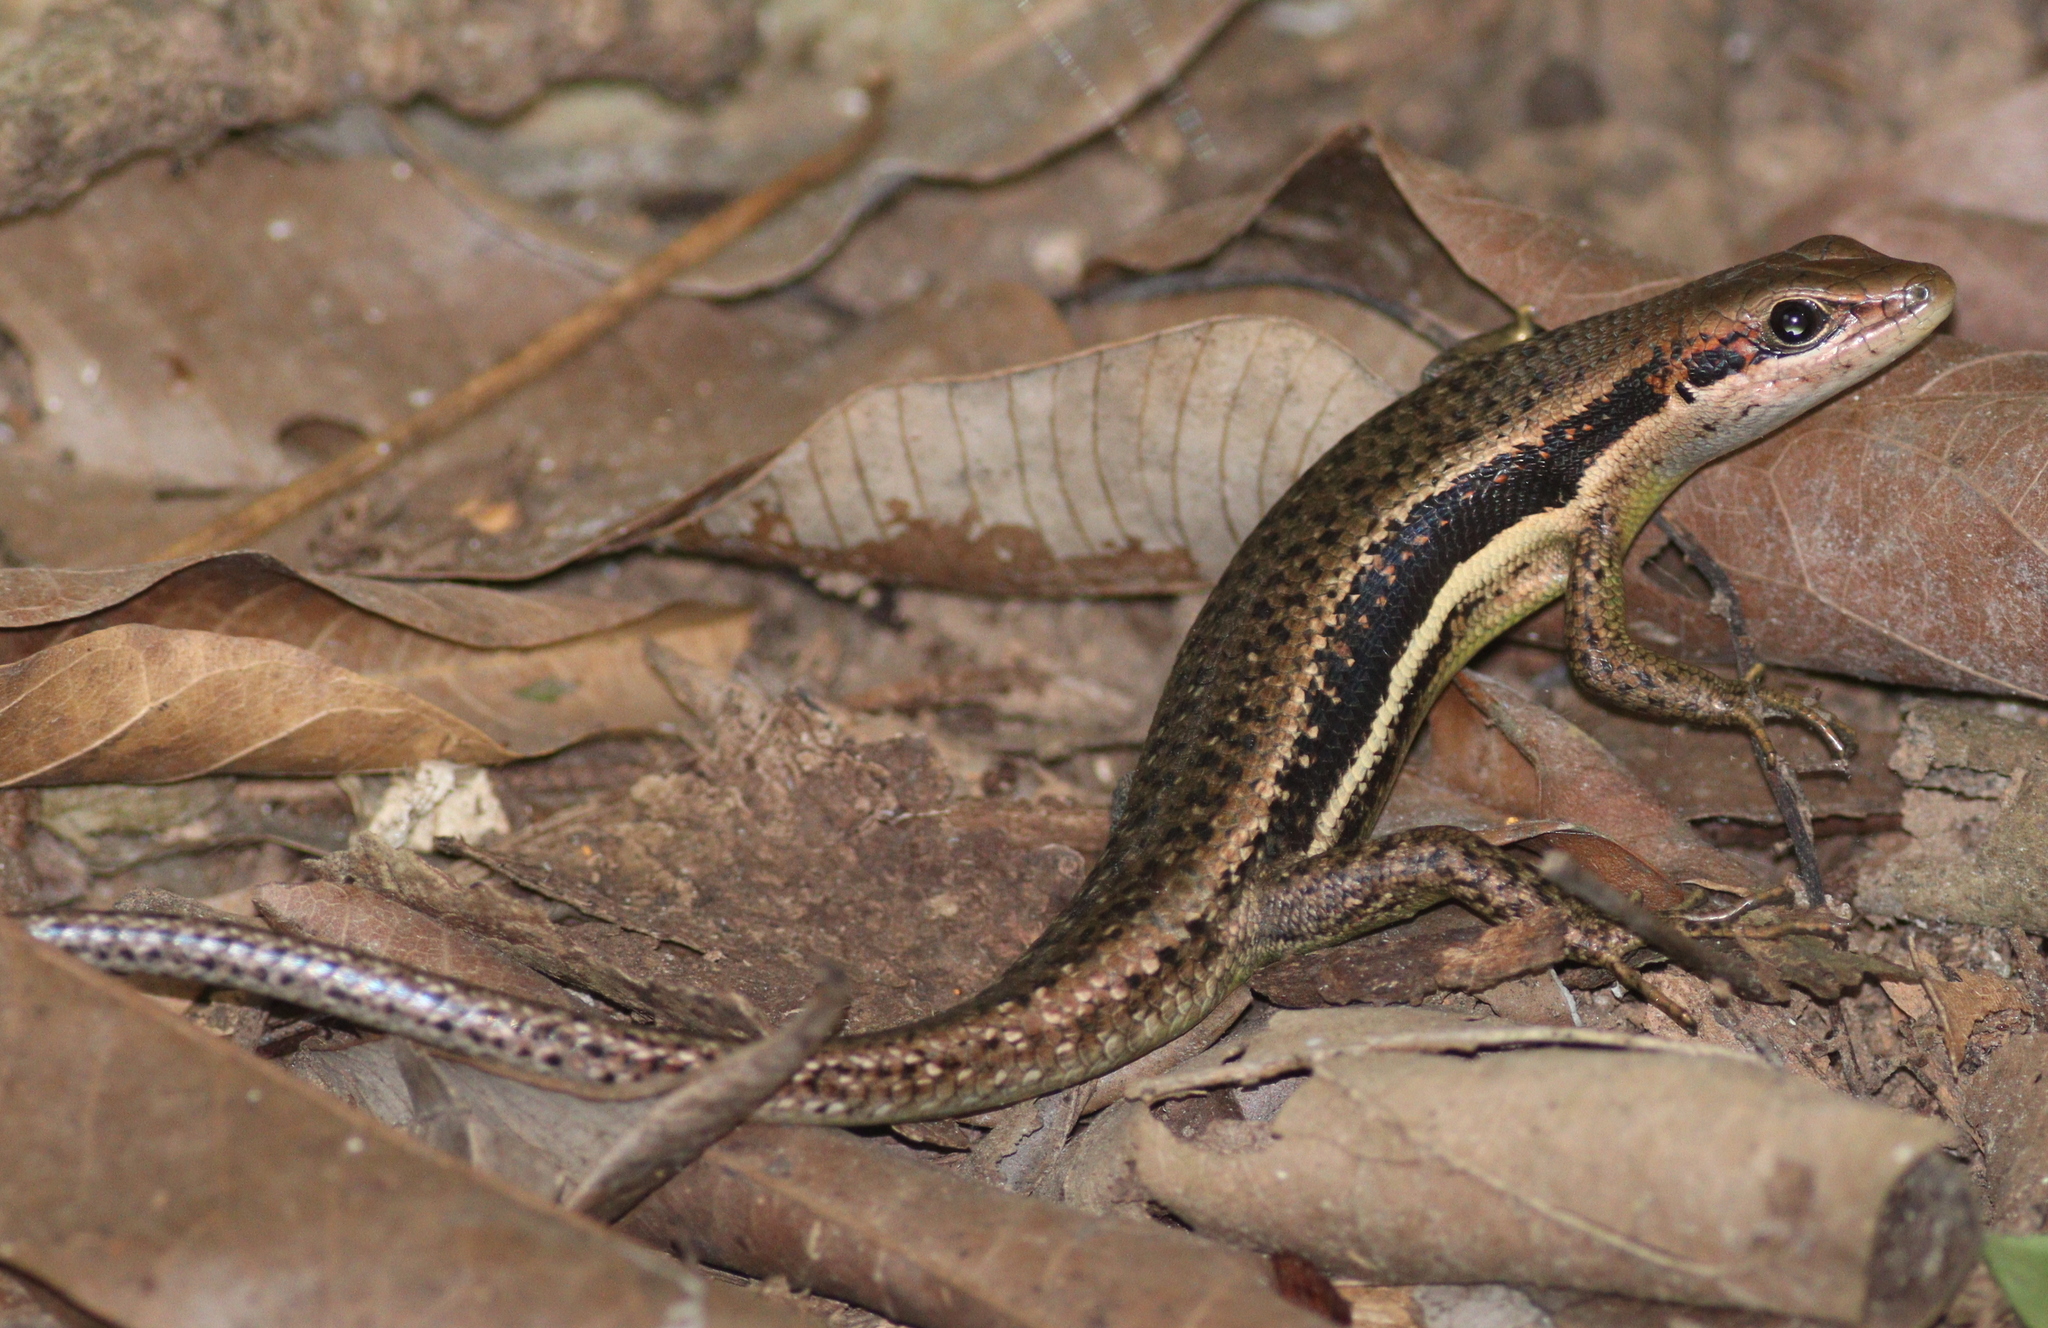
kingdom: Animalia
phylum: Chordata
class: Squamata
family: Scincidae
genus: Trachylepis
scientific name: Trachylepis affinis
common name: Senegal mabuya
